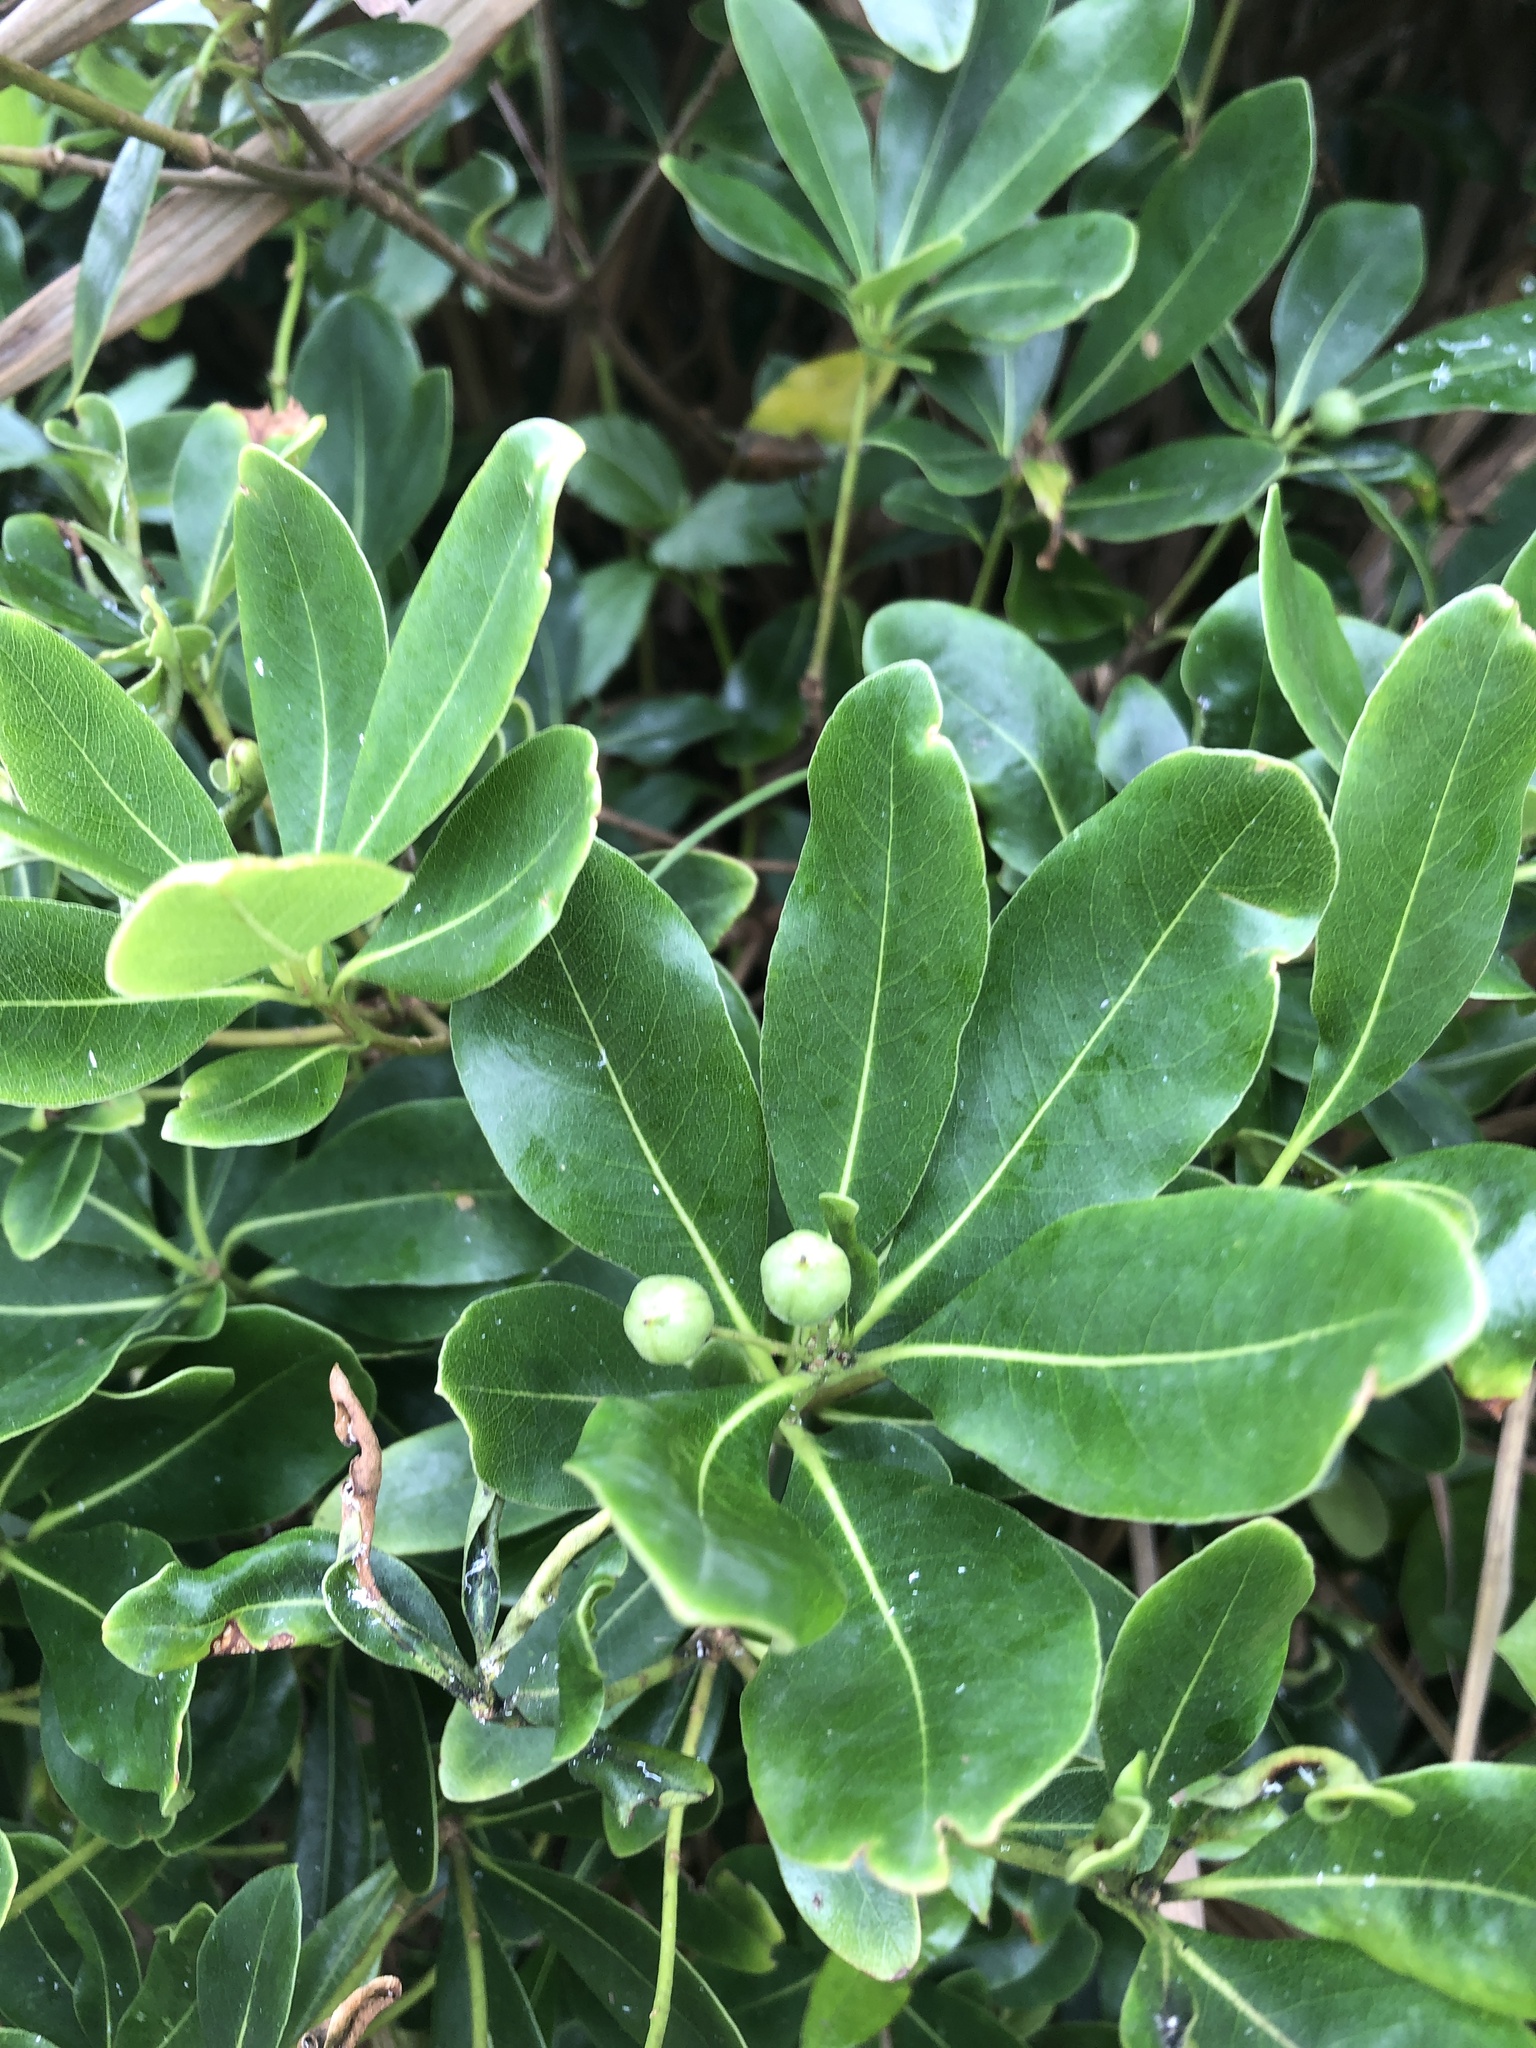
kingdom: Plantae
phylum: Tracheophyta
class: Magnoliopsida
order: Apiales
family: Pittosporaceae
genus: Pittosporum
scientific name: Pittosporum tobira
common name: Japanese cheesewood
